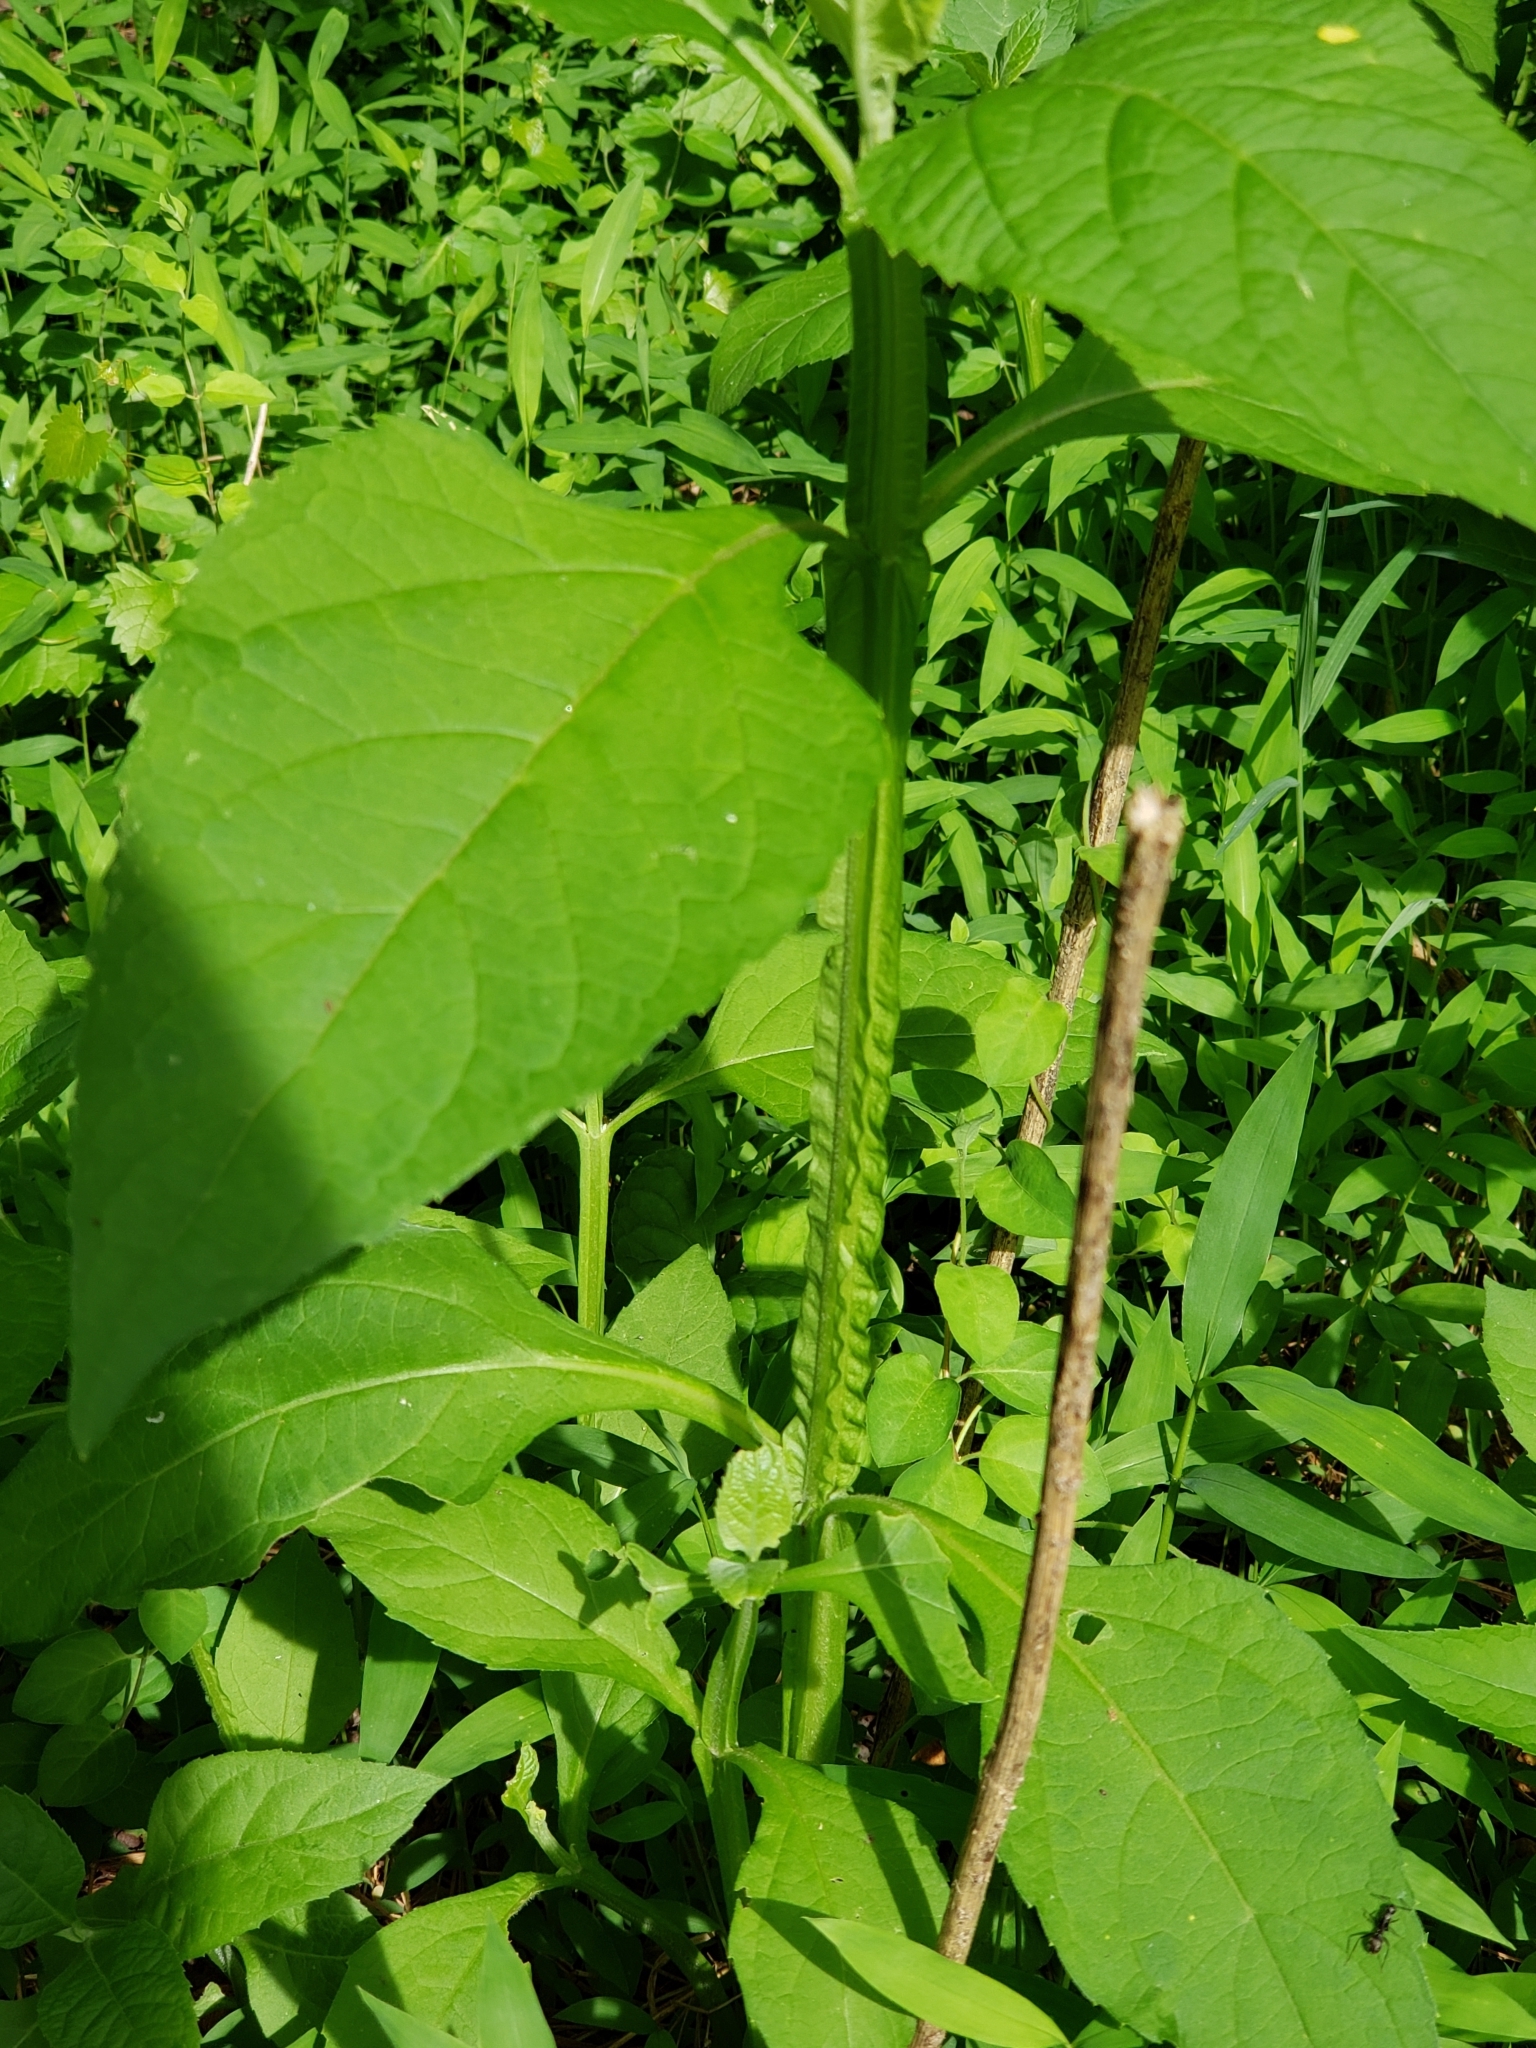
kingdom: Plantae
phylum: Tracheophyta
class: Magnoliopsida
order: Asterales
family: Asteraceae
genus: Verbesina
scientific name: Verbesina occidentalis
